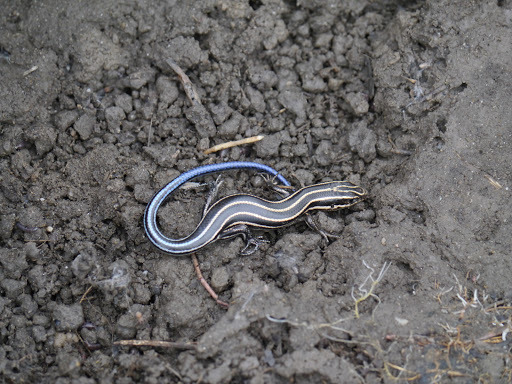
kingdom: Animalia
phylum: Chordata
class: Squamata
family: Scincidae
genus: Plestiodon
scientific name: Plestiodon fasciatus
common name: Five-lined skink
